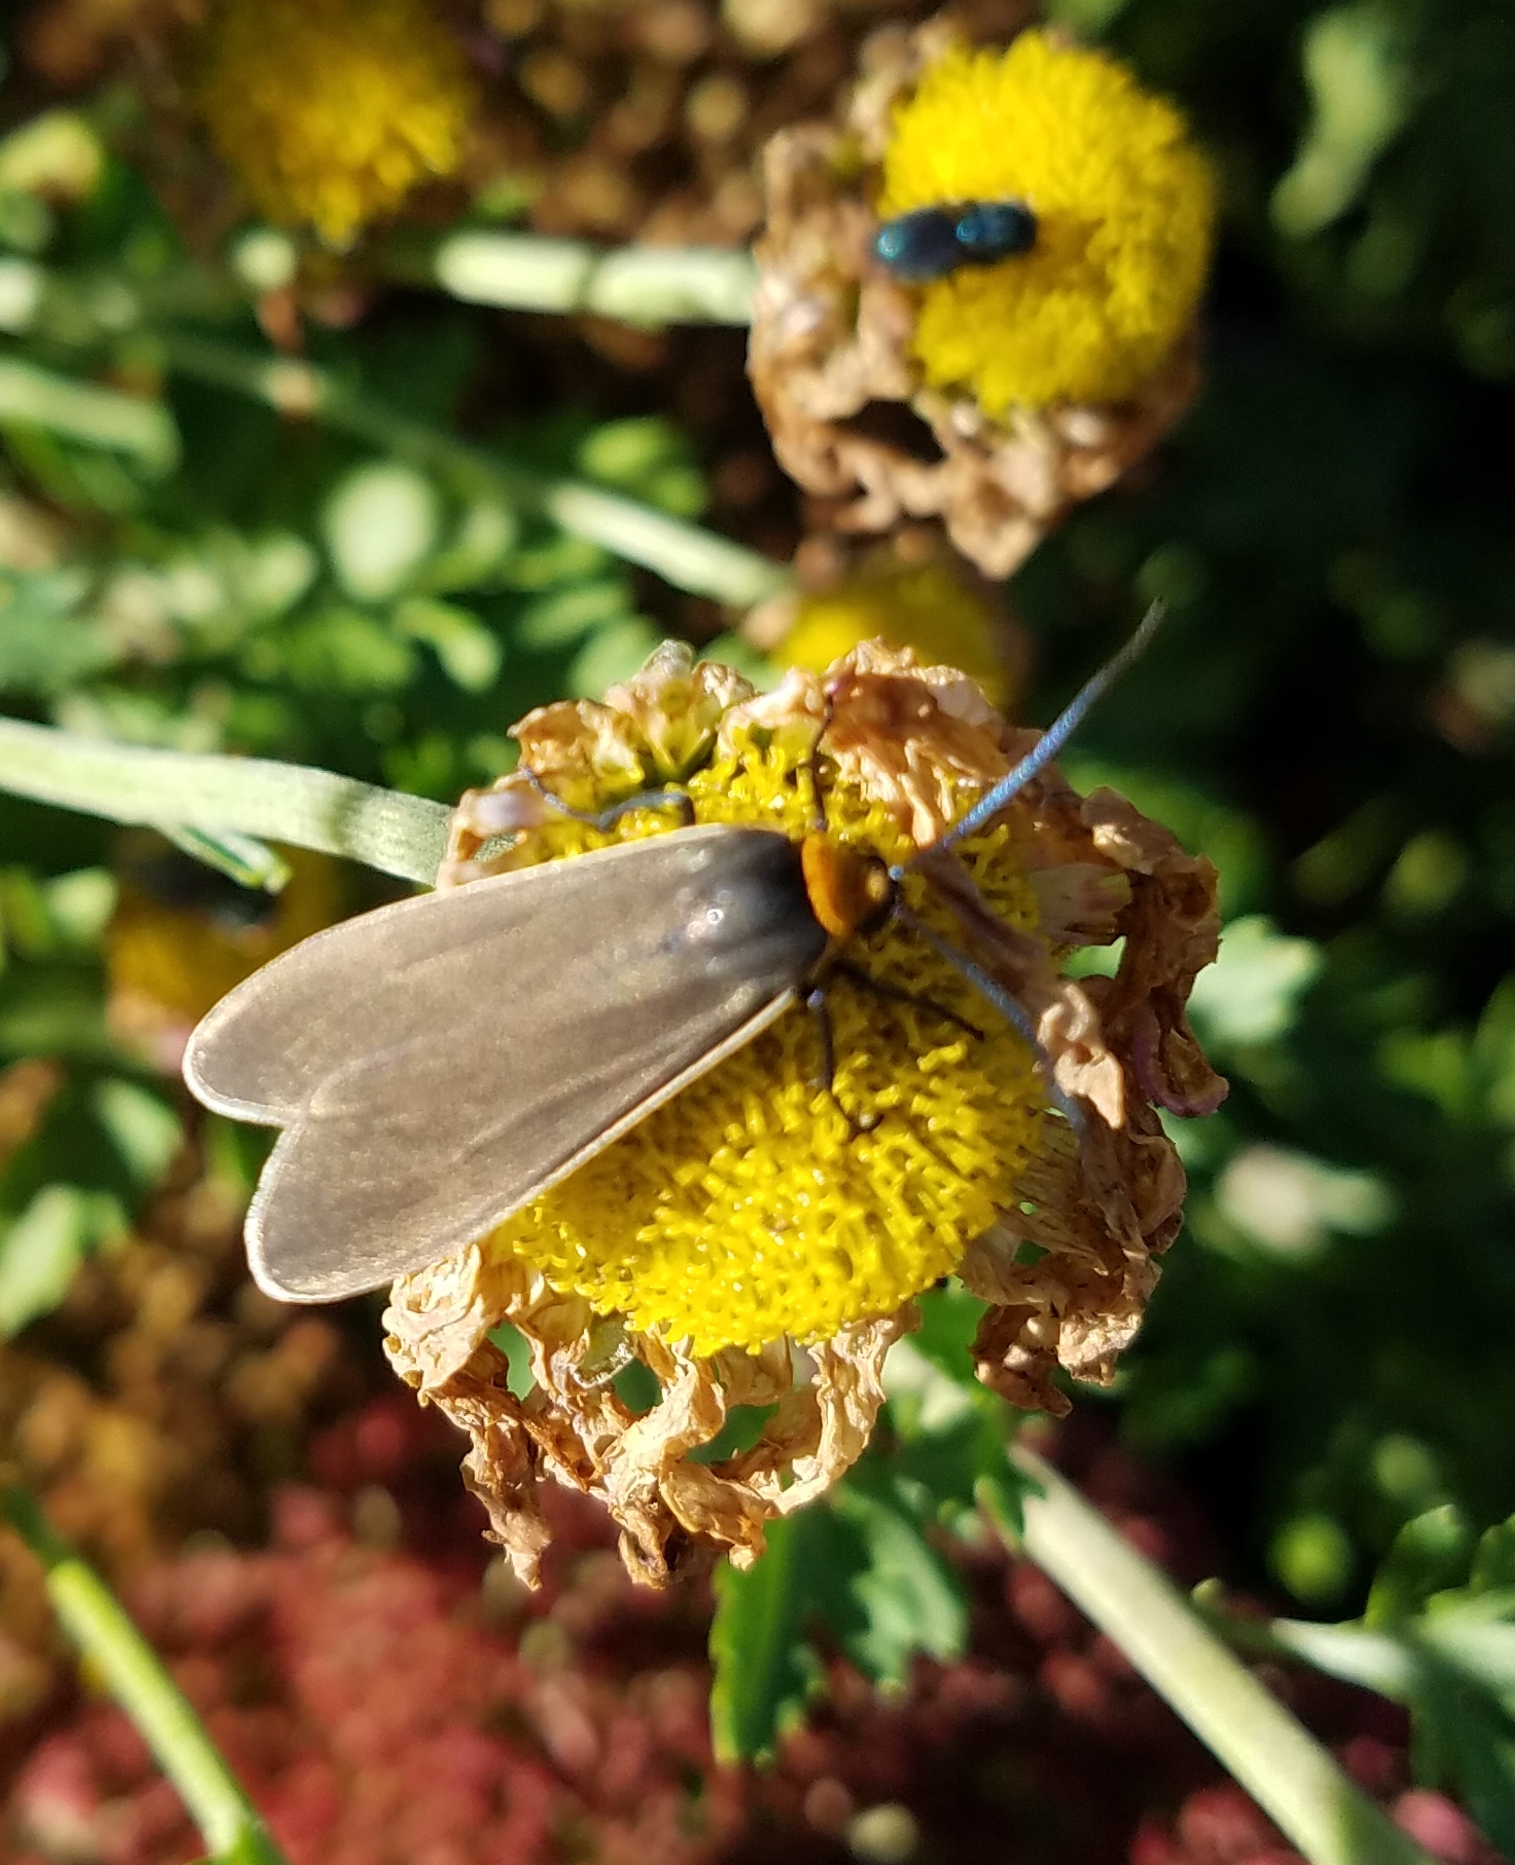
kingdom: Animalia
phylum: Arthropoda
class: Insecta
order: Lepidoptera
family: Erebidae
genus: Cisseps
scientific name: Cisseps fulvicollis
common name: Yellow-collared scape moth
